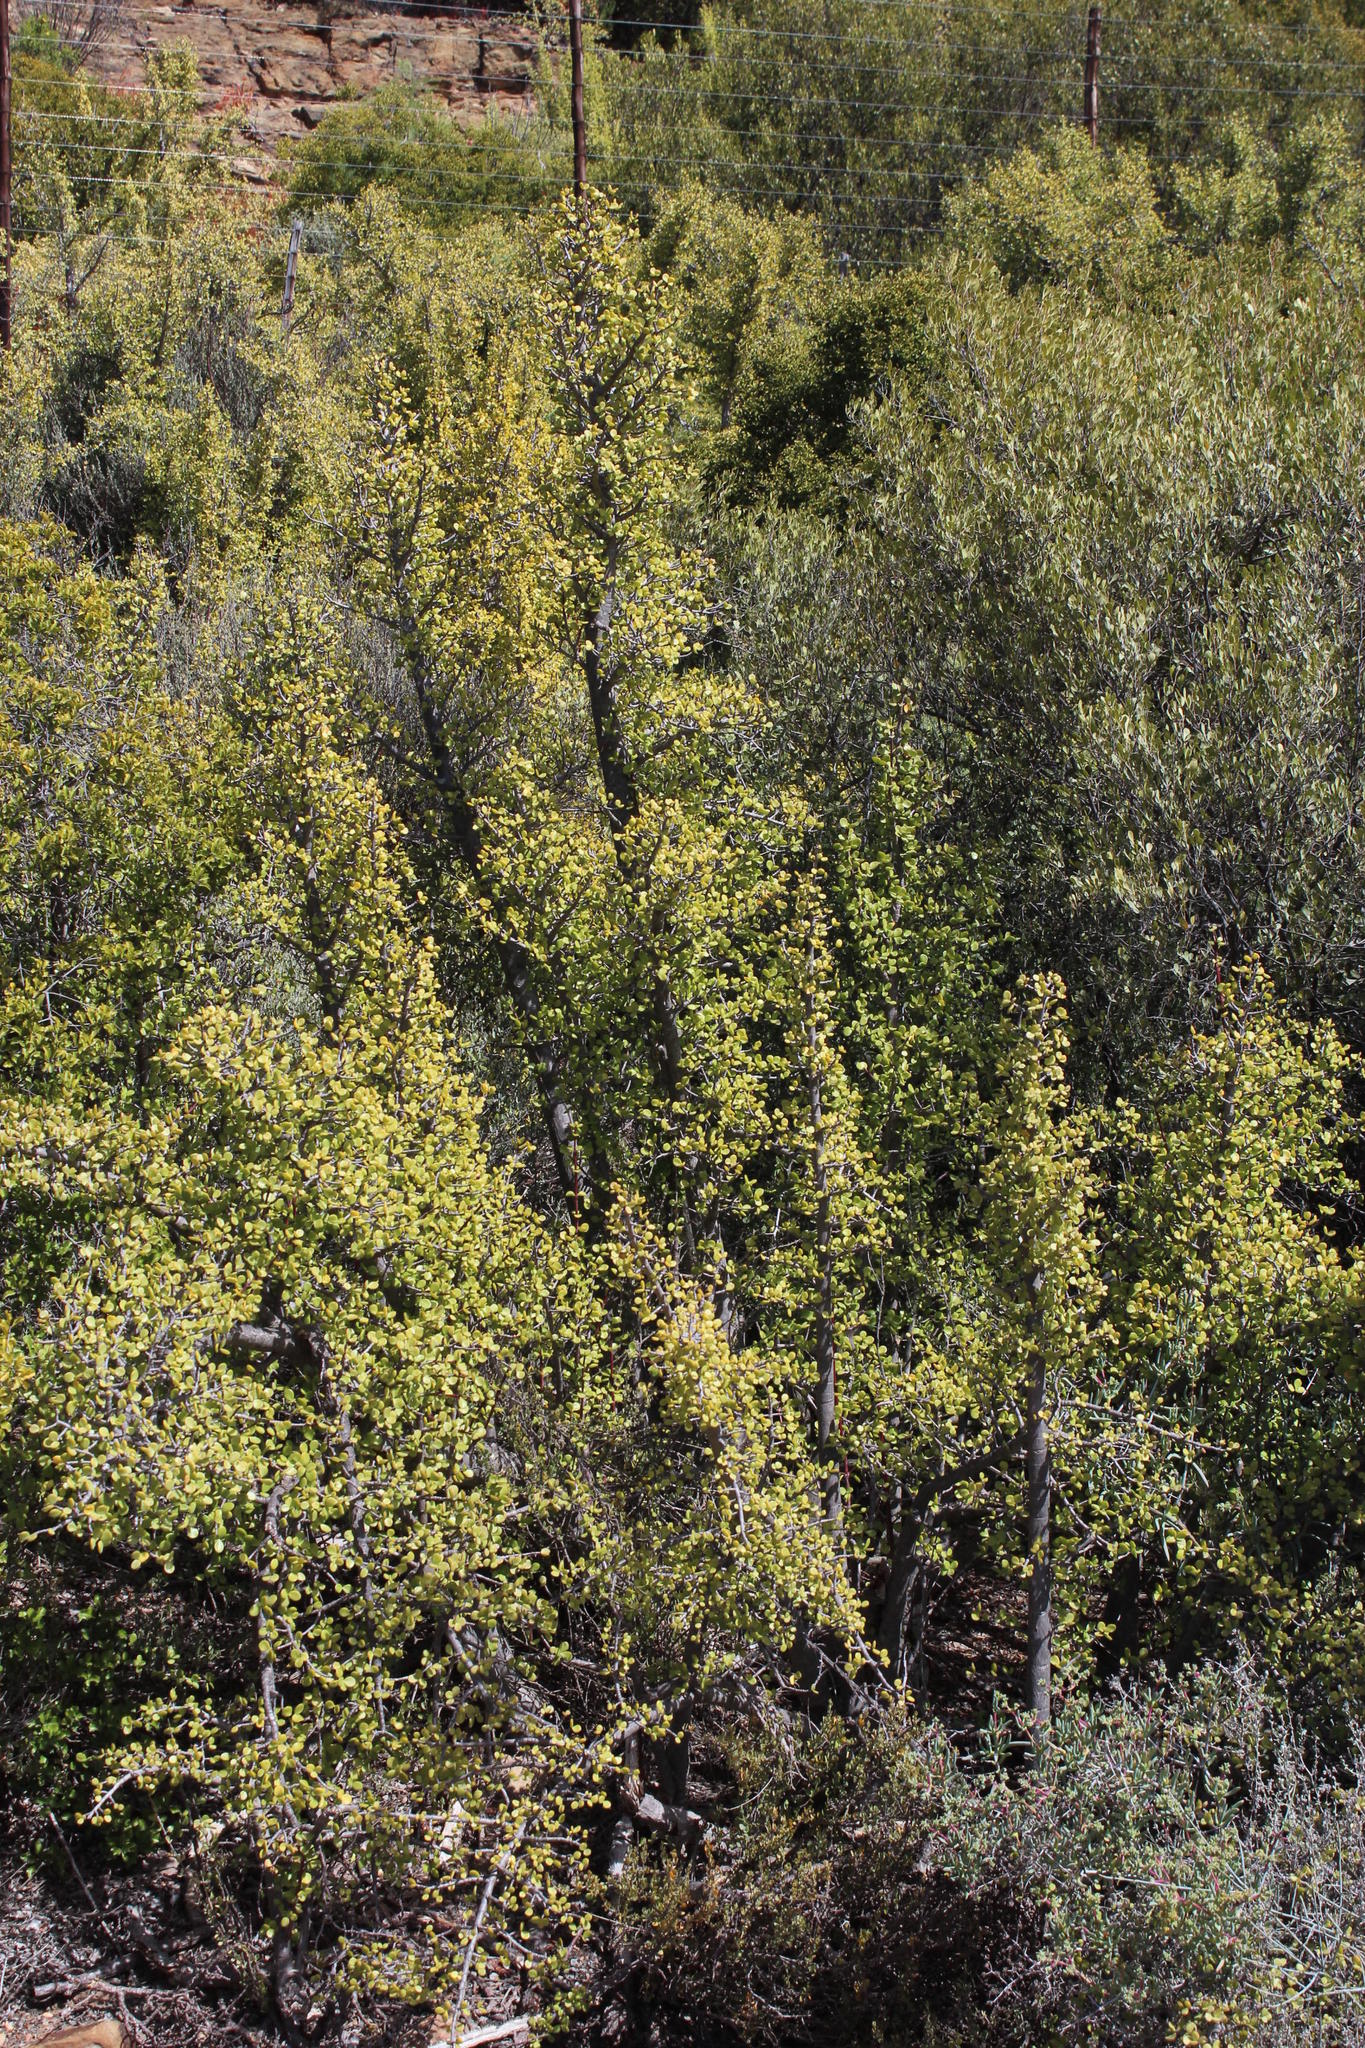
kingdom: Plantae
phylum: Tracheophyta
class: Magnoliopsida
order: Caryophyllales
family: Didiereaceae
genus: Portulacaria
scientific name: Portulacaria afra
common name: Elephant-bush
